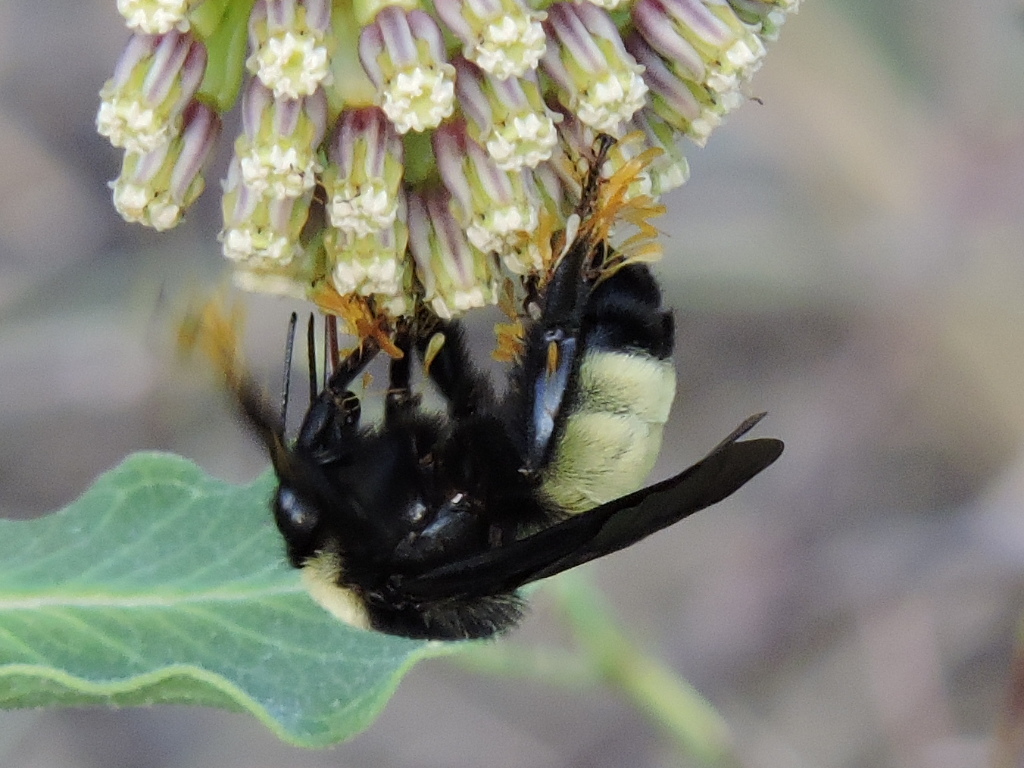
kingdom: Animalia
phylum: Arthropoda
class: Insecta
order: Hymenoptera
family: Apidae
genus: Bombus
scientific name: Bombus pensylvanicus
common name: Bumble bee
